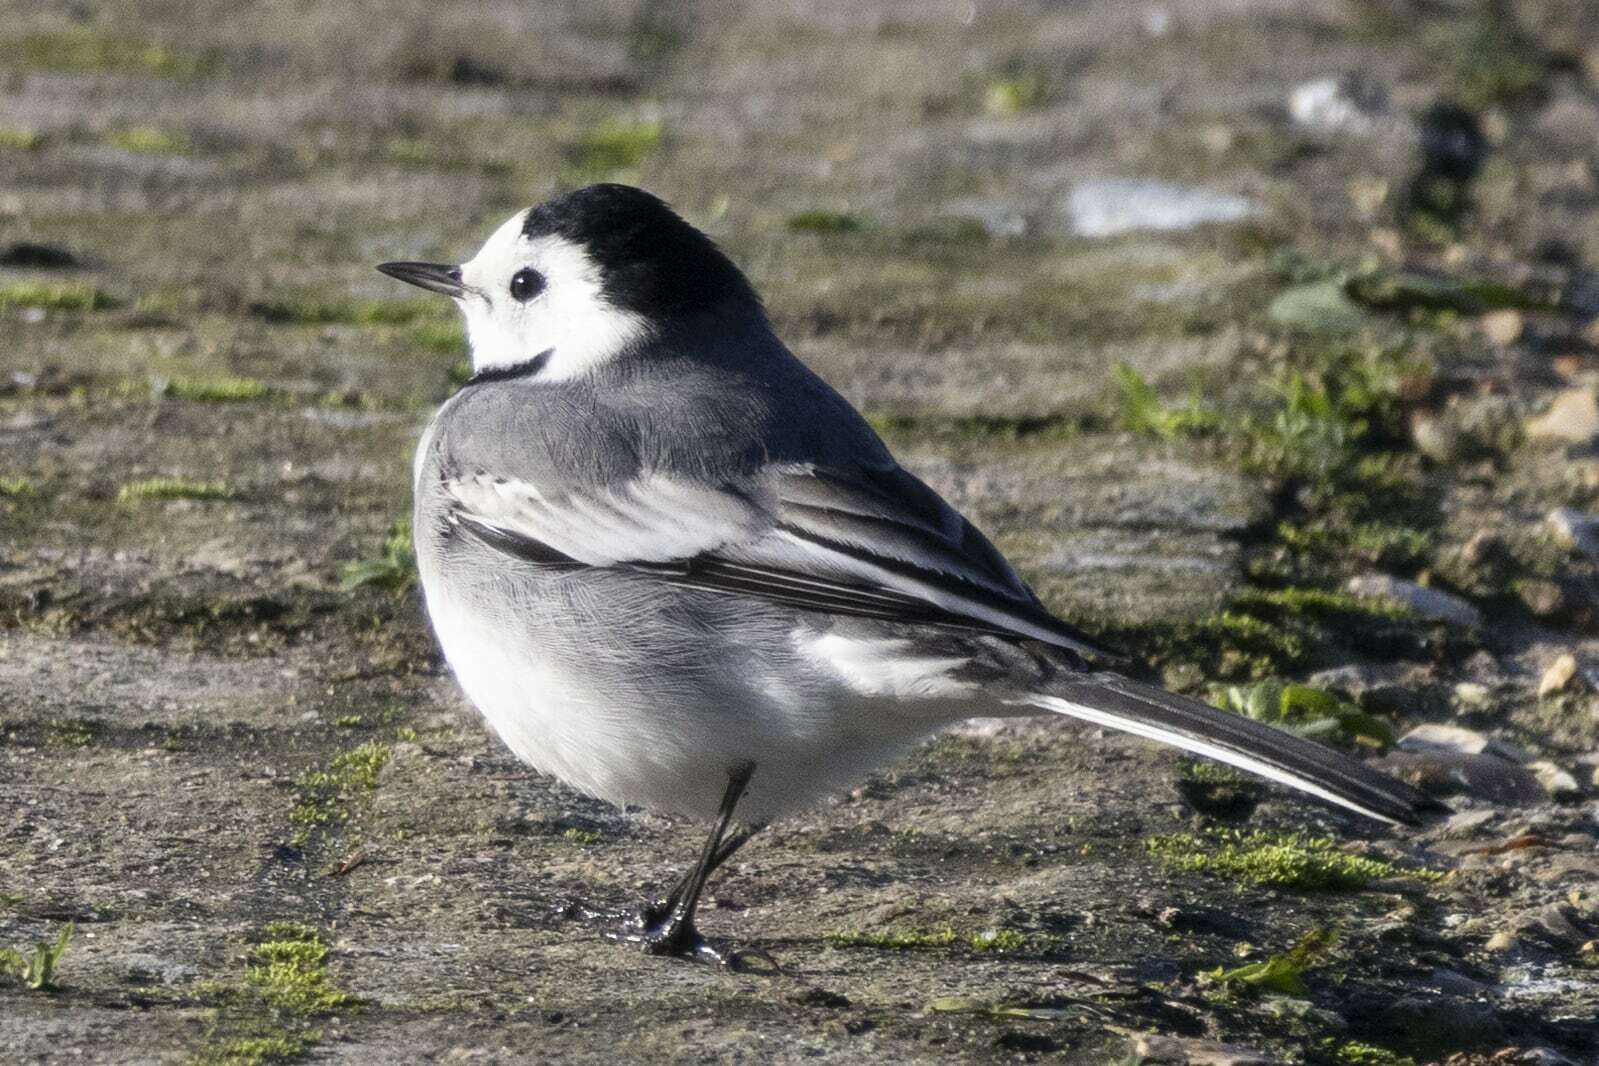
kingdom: Animalia
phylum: Chordata
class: Aves
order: Passeriformes
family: Motacillidae
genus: Motacilla
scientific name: Motacilla alba
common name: White wagtail
